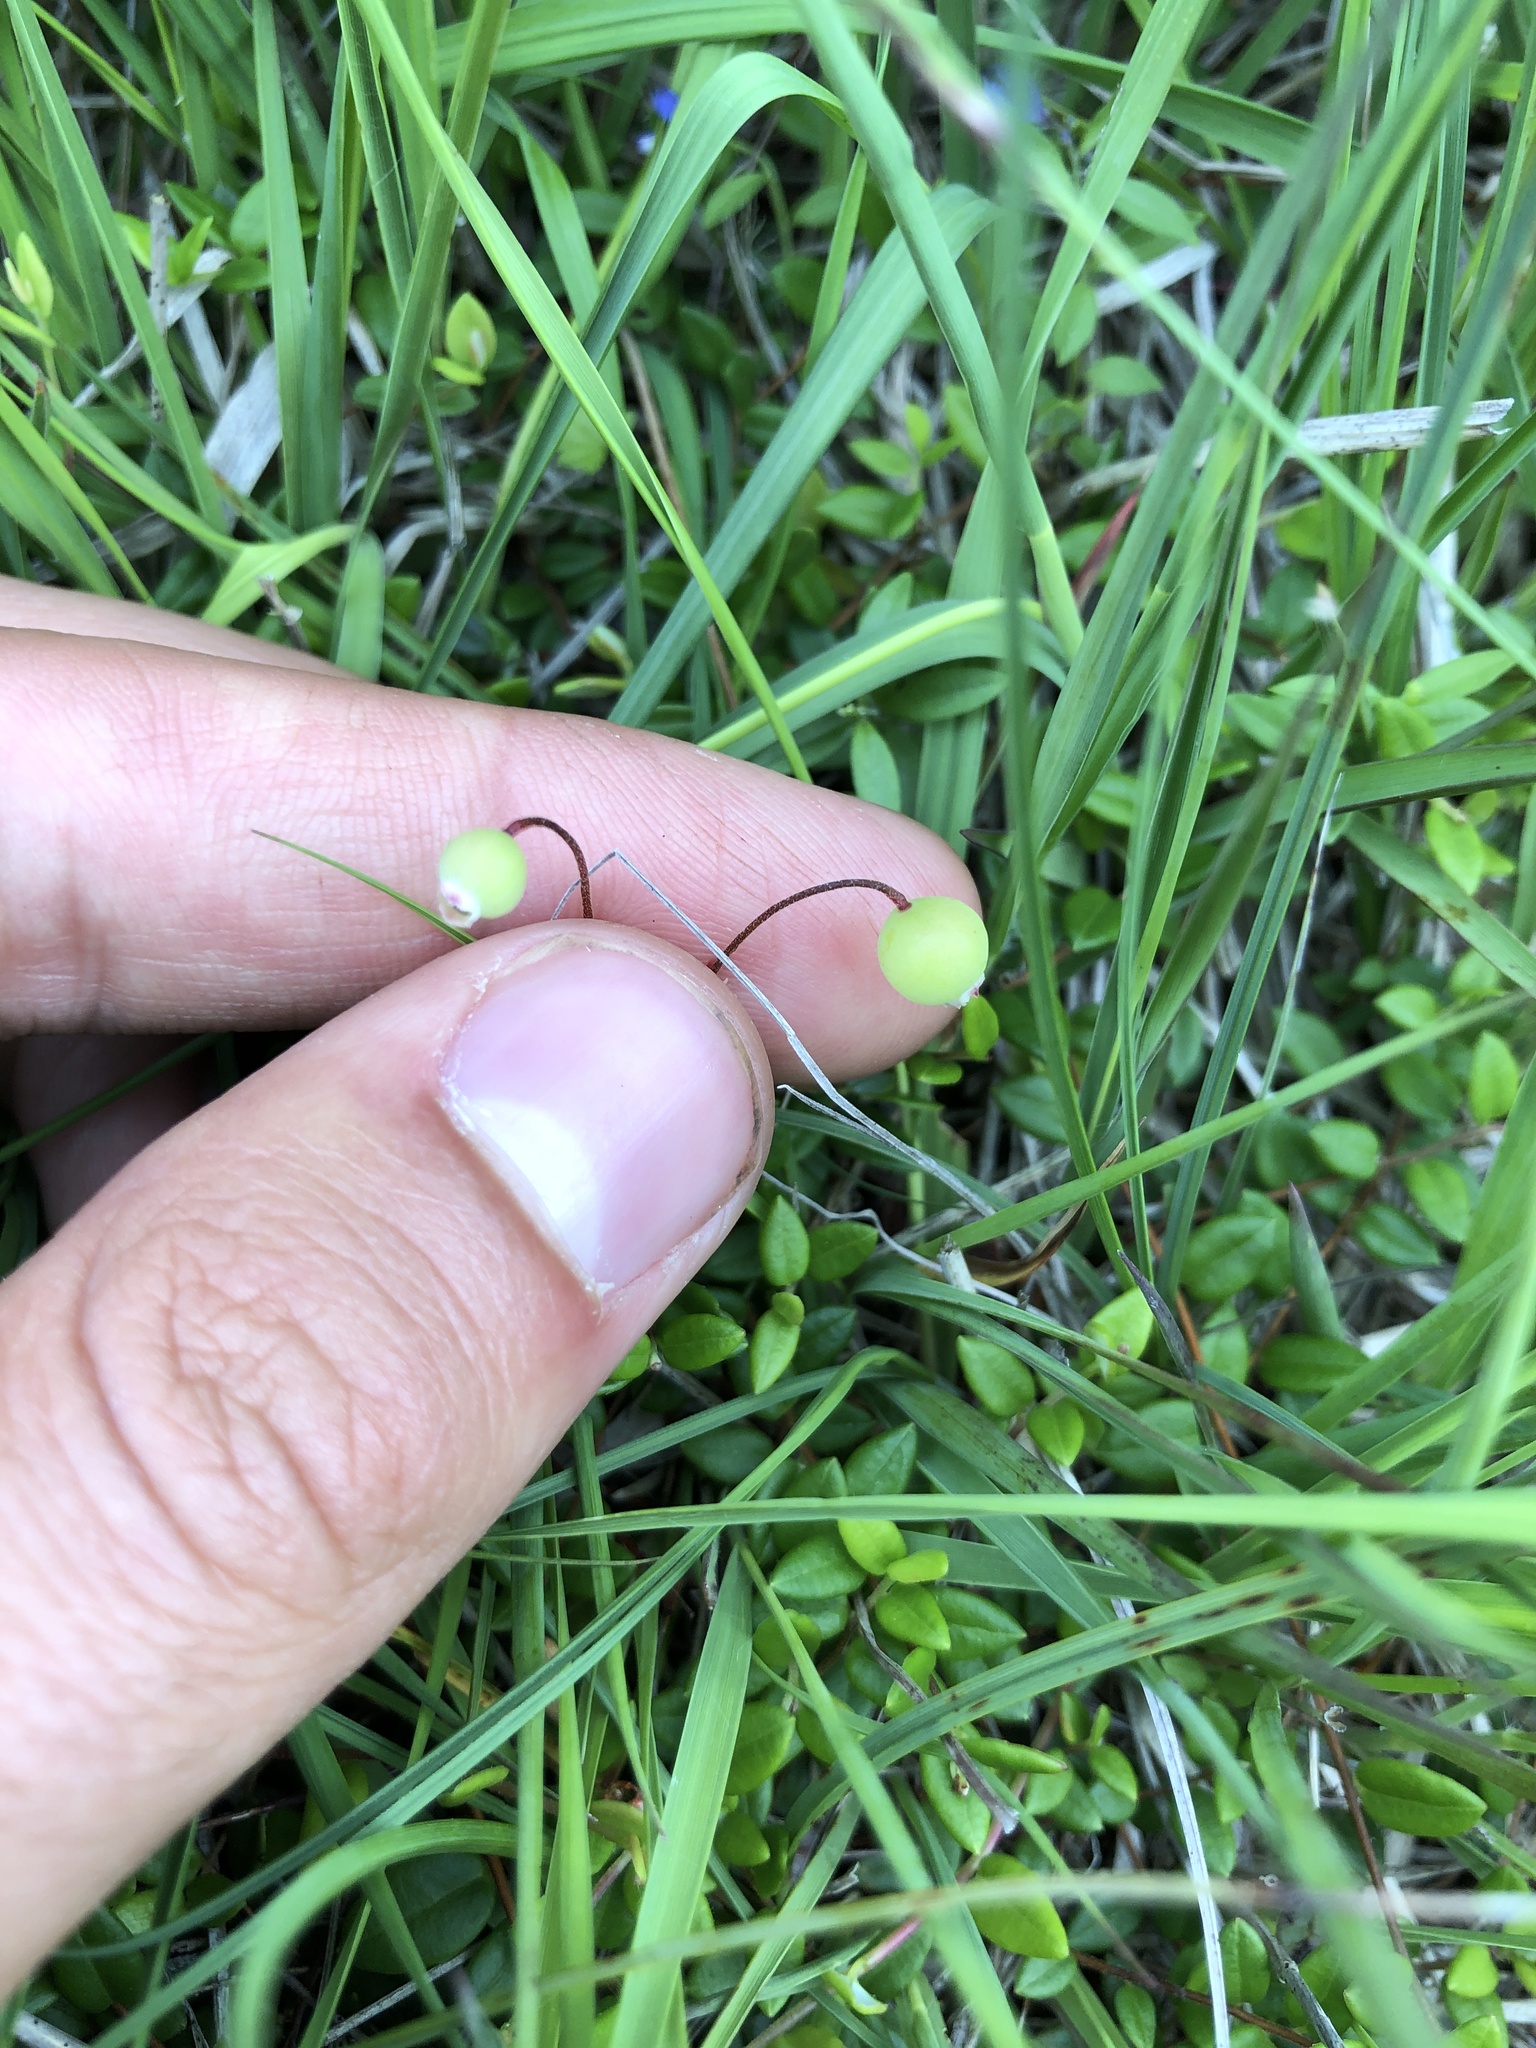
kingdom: Plantae
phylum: Tracheophyta
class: Magnoliopsida
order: Ericales
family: Ericaceae
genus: Vaccinium
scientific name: Vaccinium oxycoccos
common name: Cranberry
